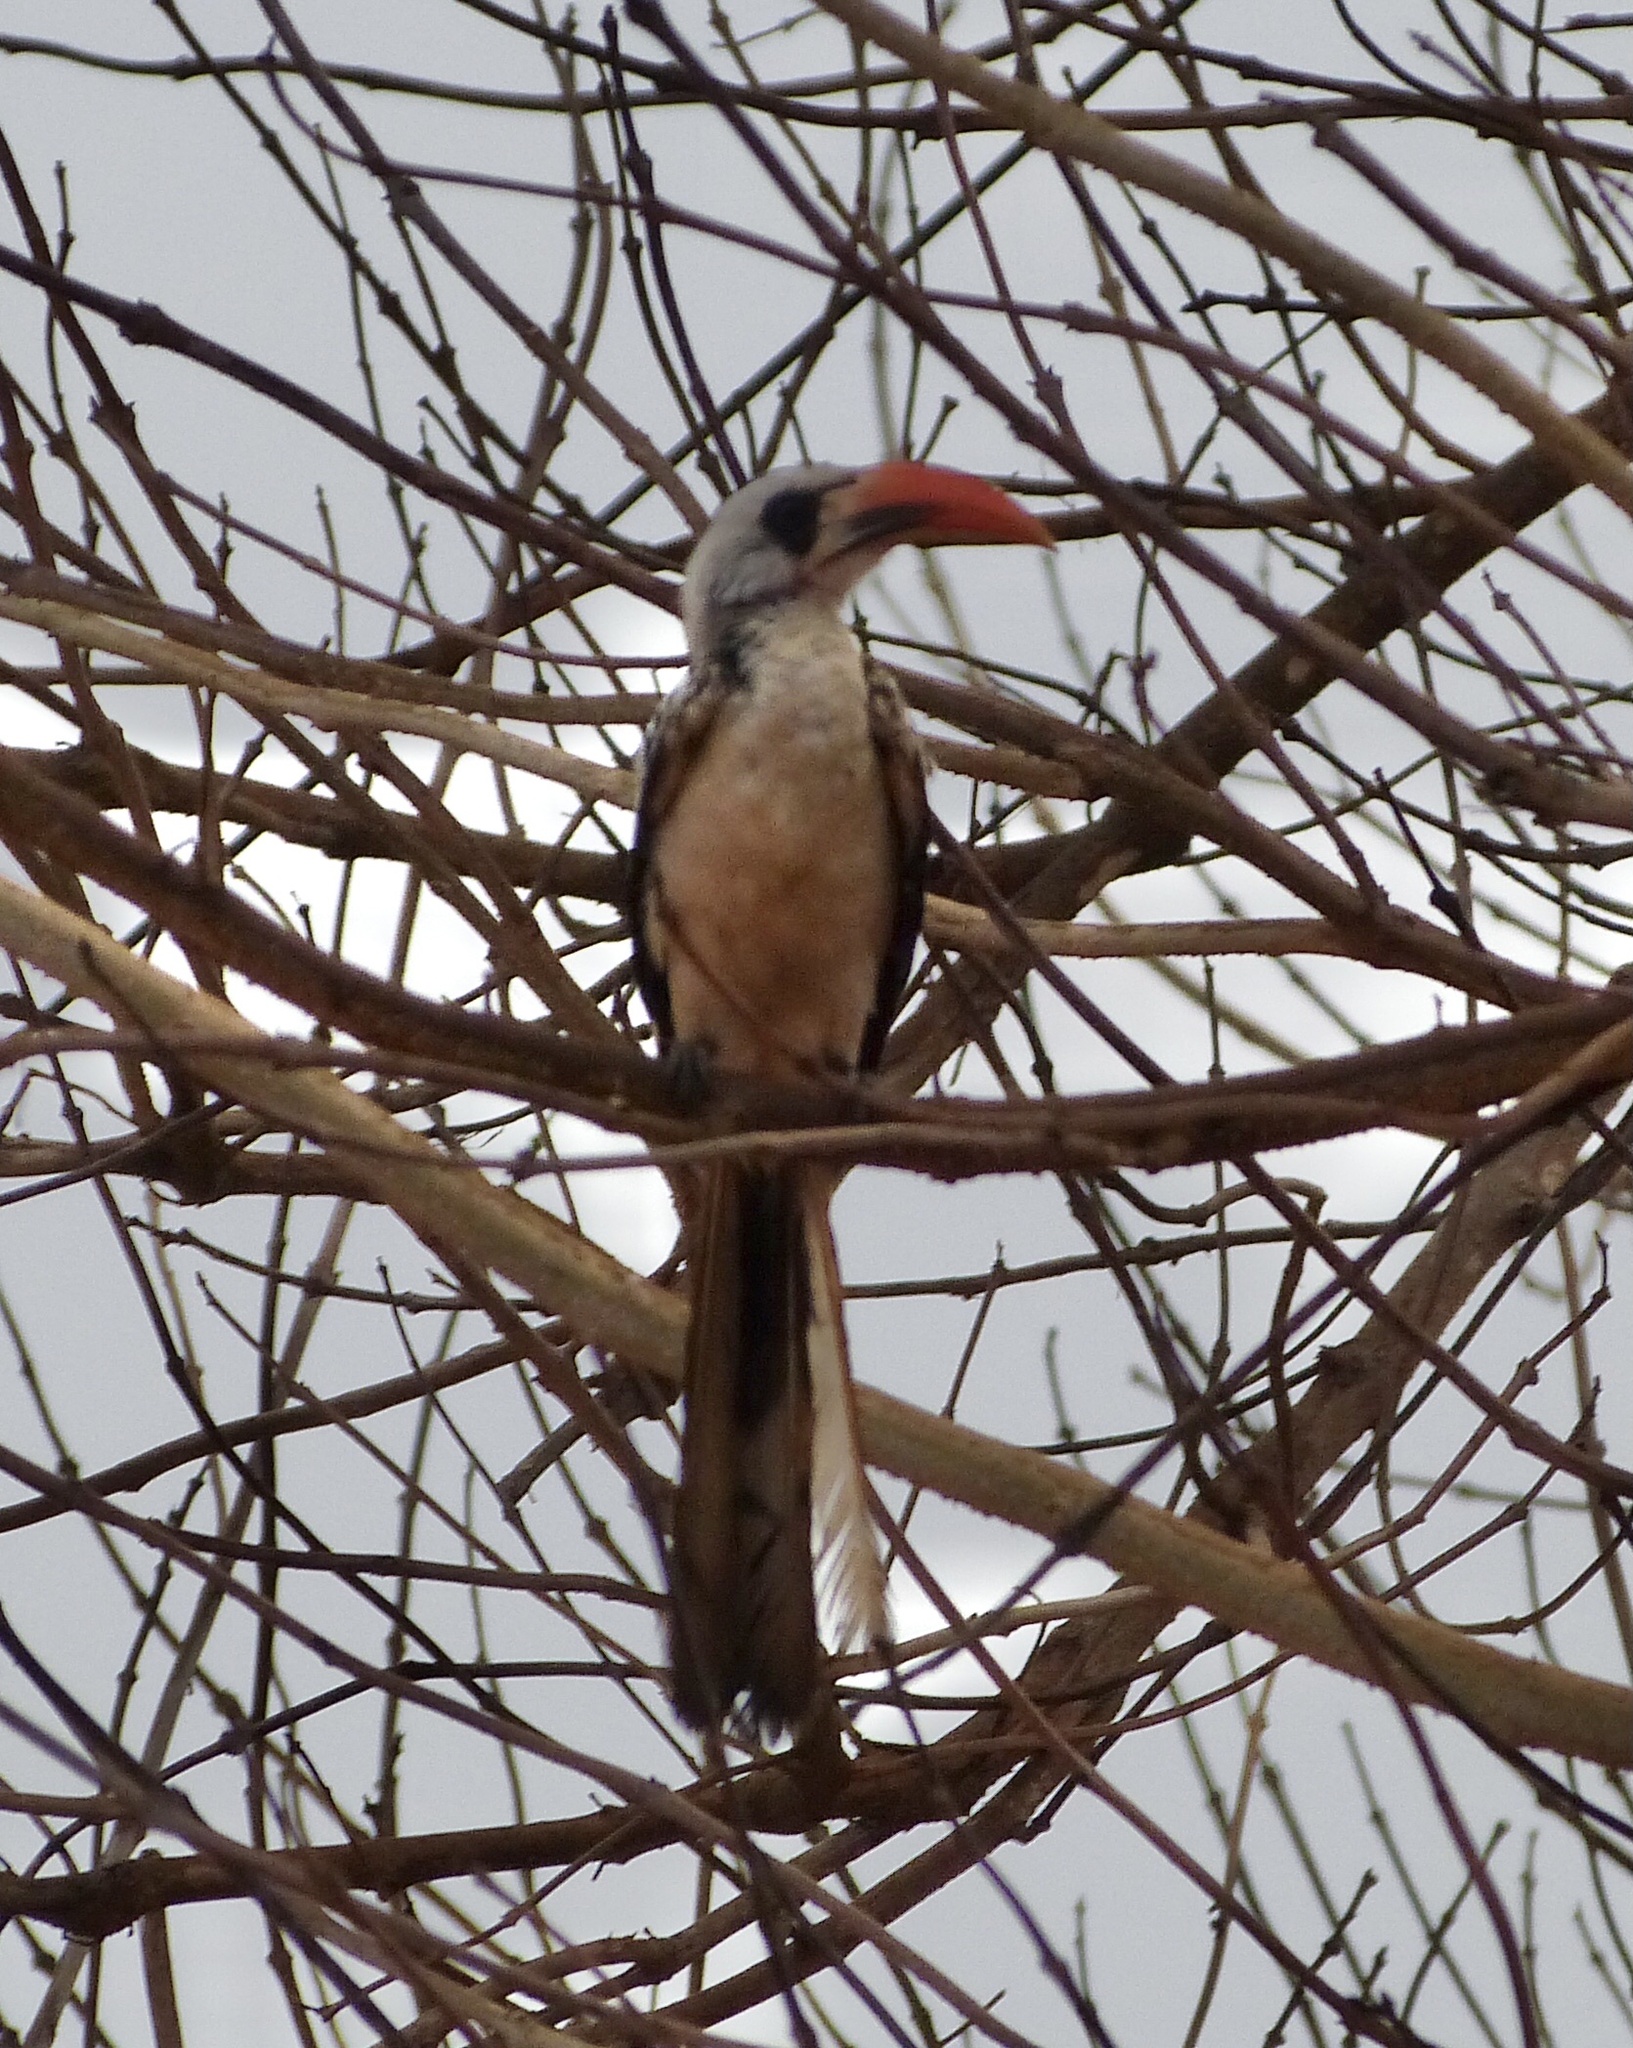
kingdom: Animalia
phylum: Chordata
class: Aves
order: Bucerotiformes
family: Bucerotidae
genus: Tockus
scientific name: Tockus kempi
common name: Western red-billed hornbill
